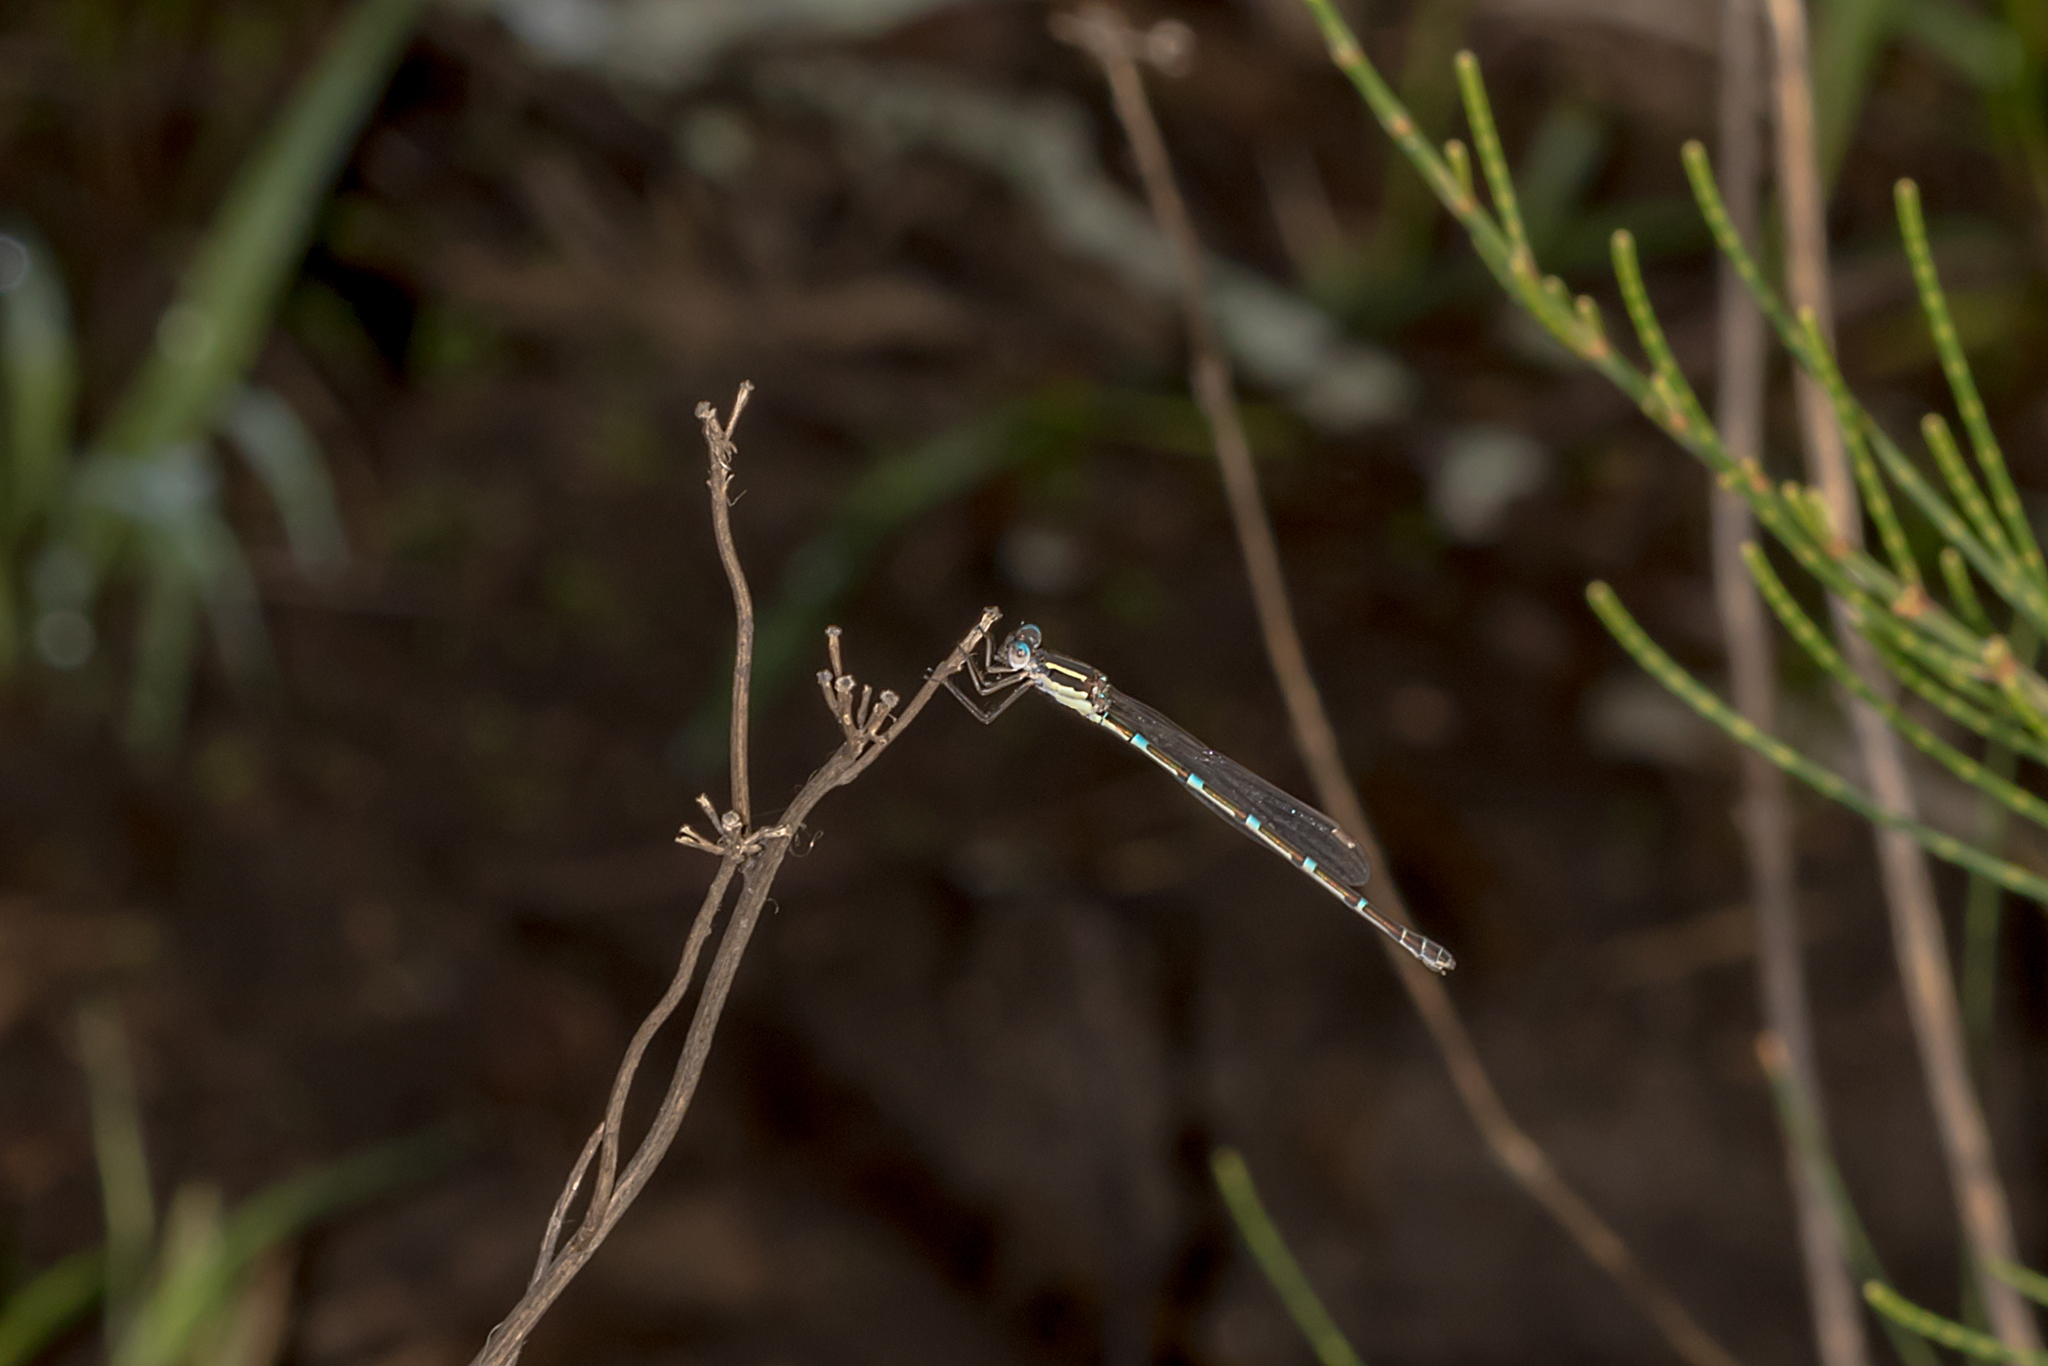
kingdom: Animalia
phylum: Arthropoda
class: Insecta
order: Odonata
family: Lestidae
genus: Austrolestes
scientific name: Austrolestes leda
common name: Wandering ringtail
